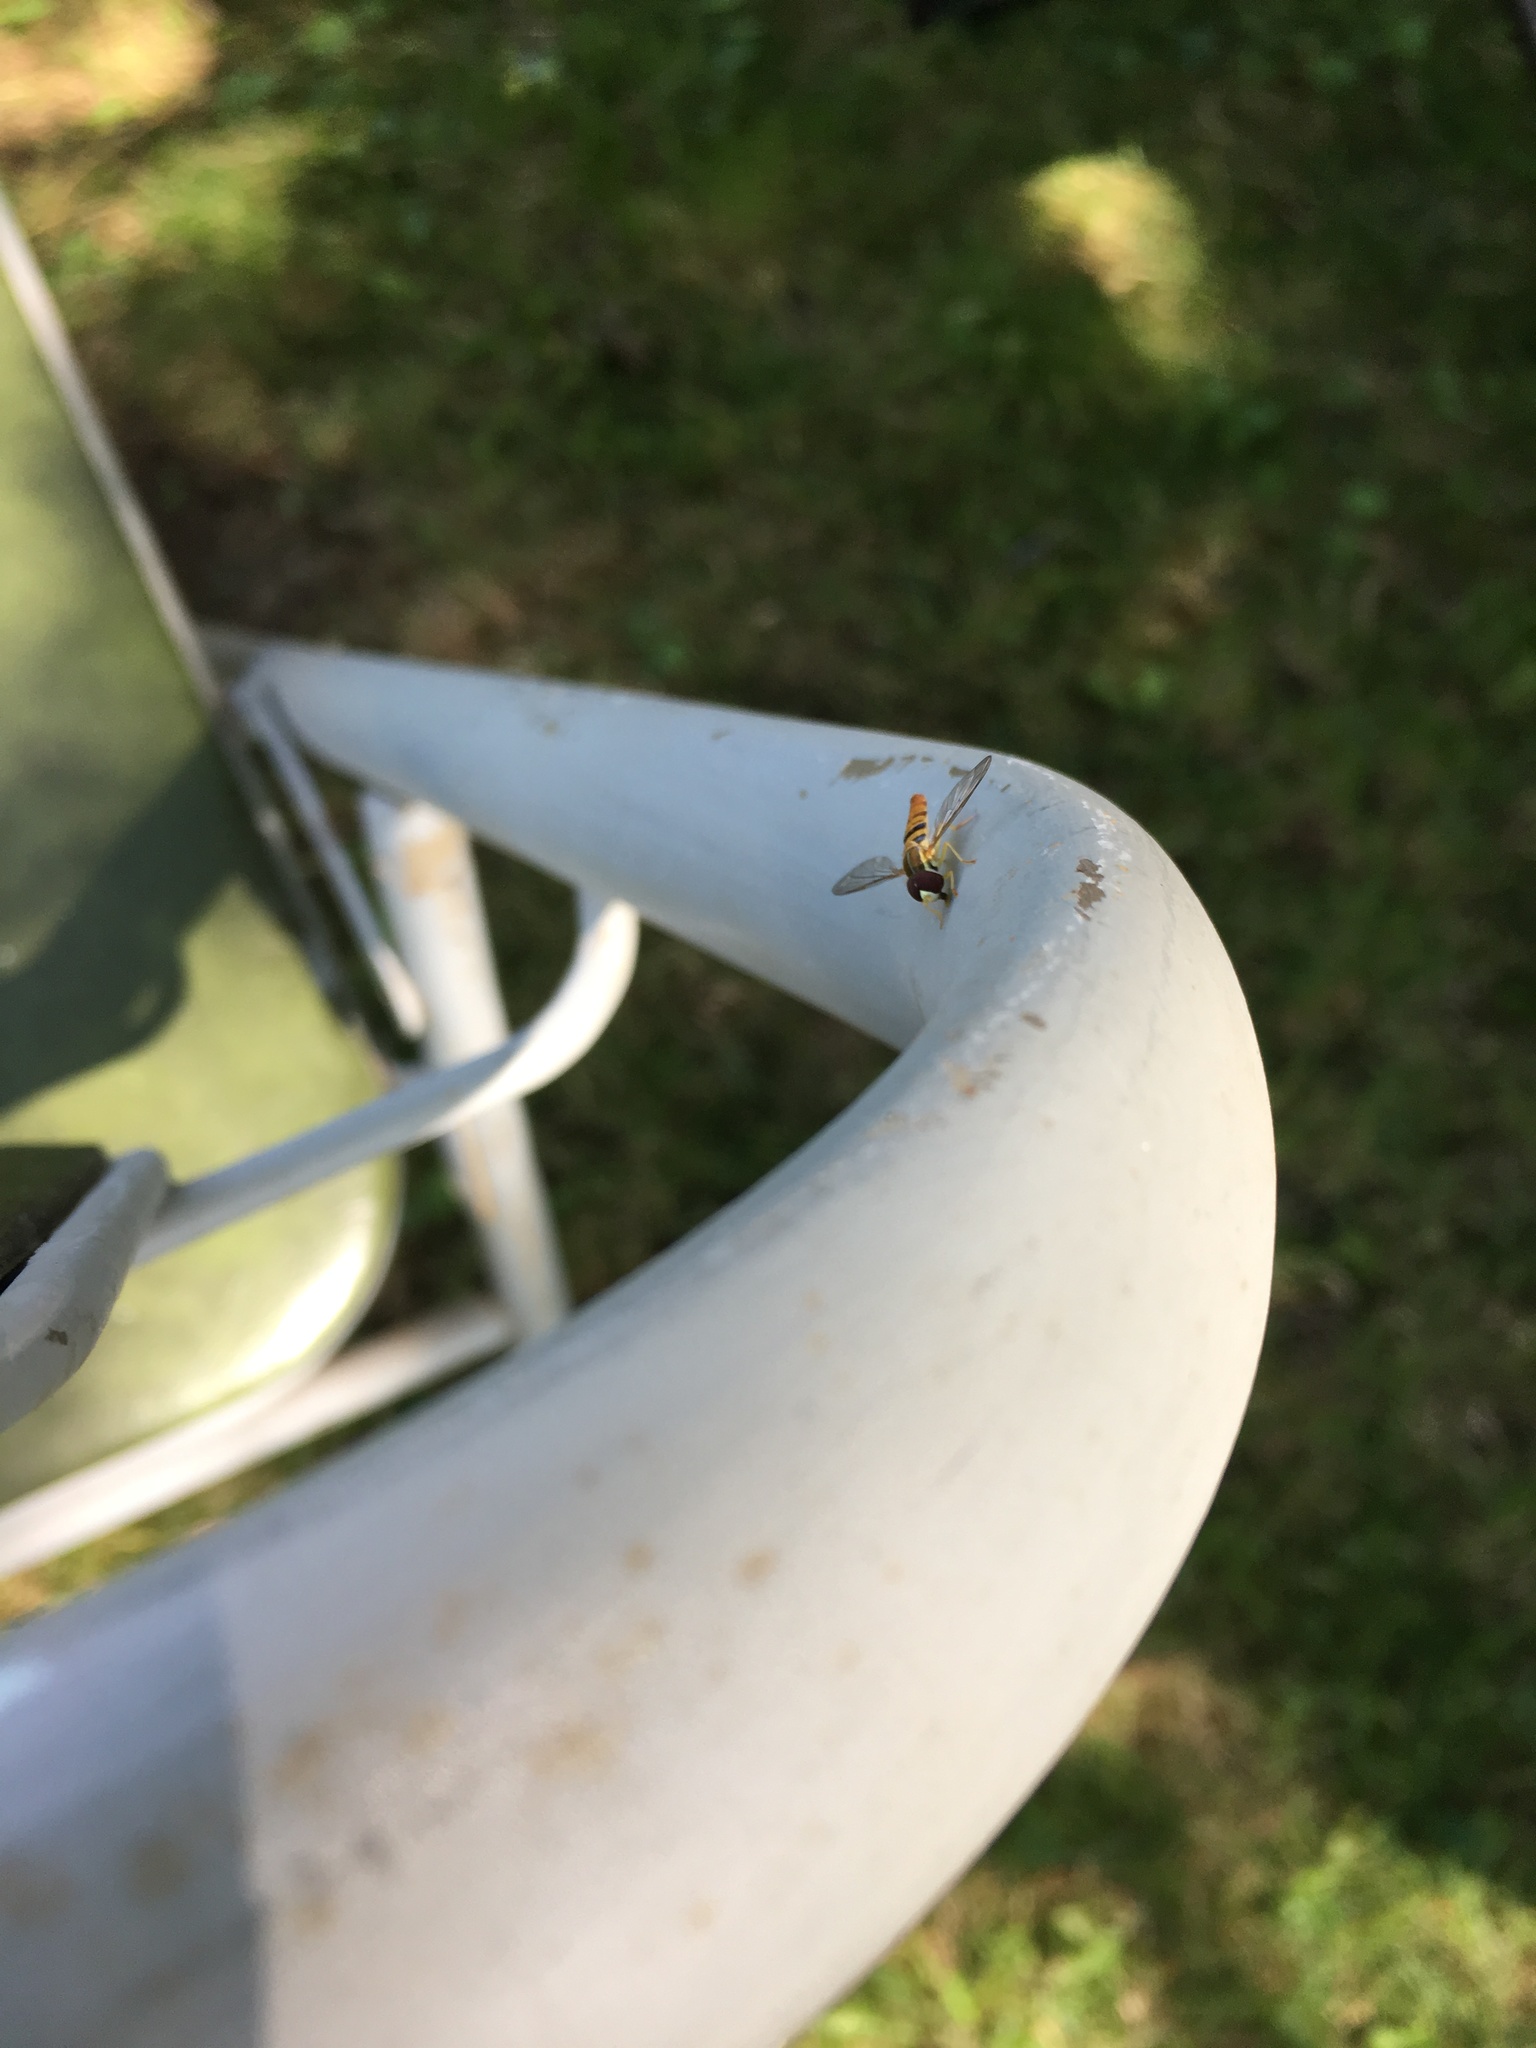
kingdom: Animalia
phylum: Arthropoda
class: Insecta
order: Diptera
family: Syrphidae
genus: Toxomerus
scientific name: Toxomerus politus
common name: Maize calligrapher
